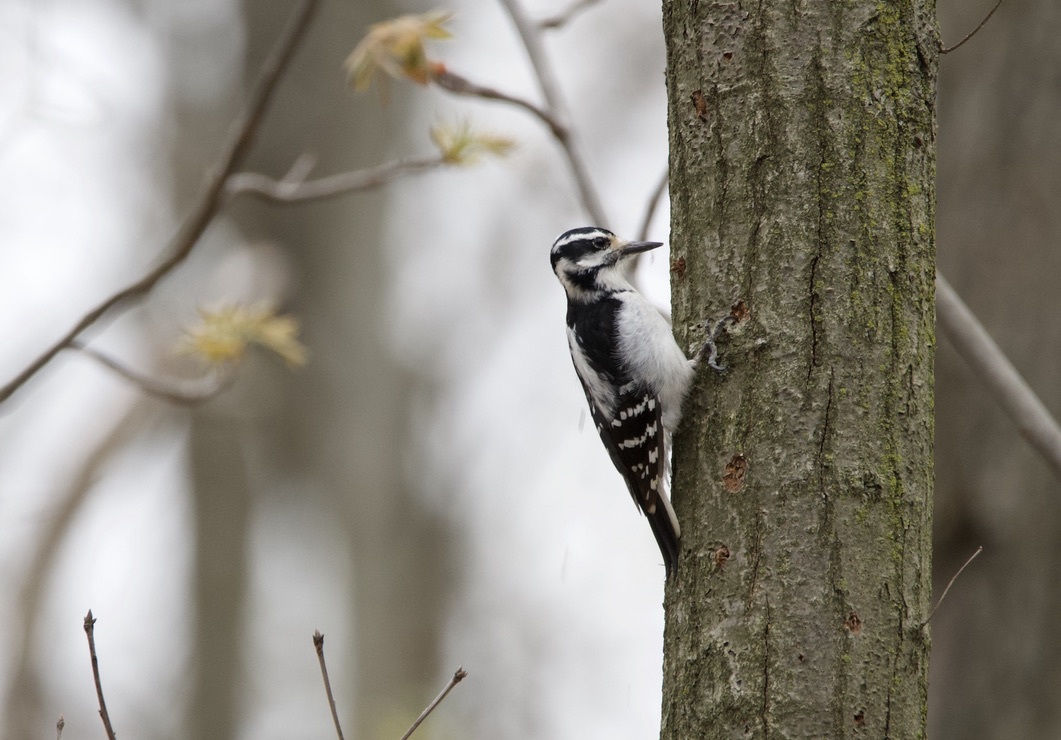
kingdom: Animalia
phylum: Chordata
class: Aves
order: Piciformes
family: Picidae
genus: Leuconotopicus
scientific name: Leuconotopicus villosus
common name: Hairy woodpecker
